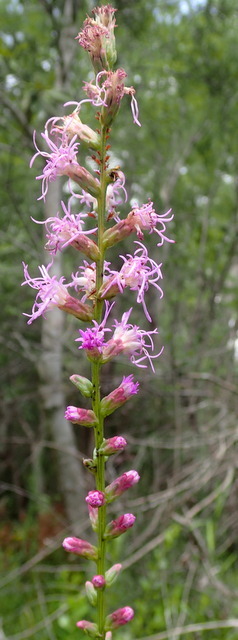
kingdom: Plantae
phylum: Tracheophyta
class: Magnoliopsida
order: Asterales
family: Asteraceae
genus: Liatris
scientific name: Liatris spicata
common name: Florist gayfeather
